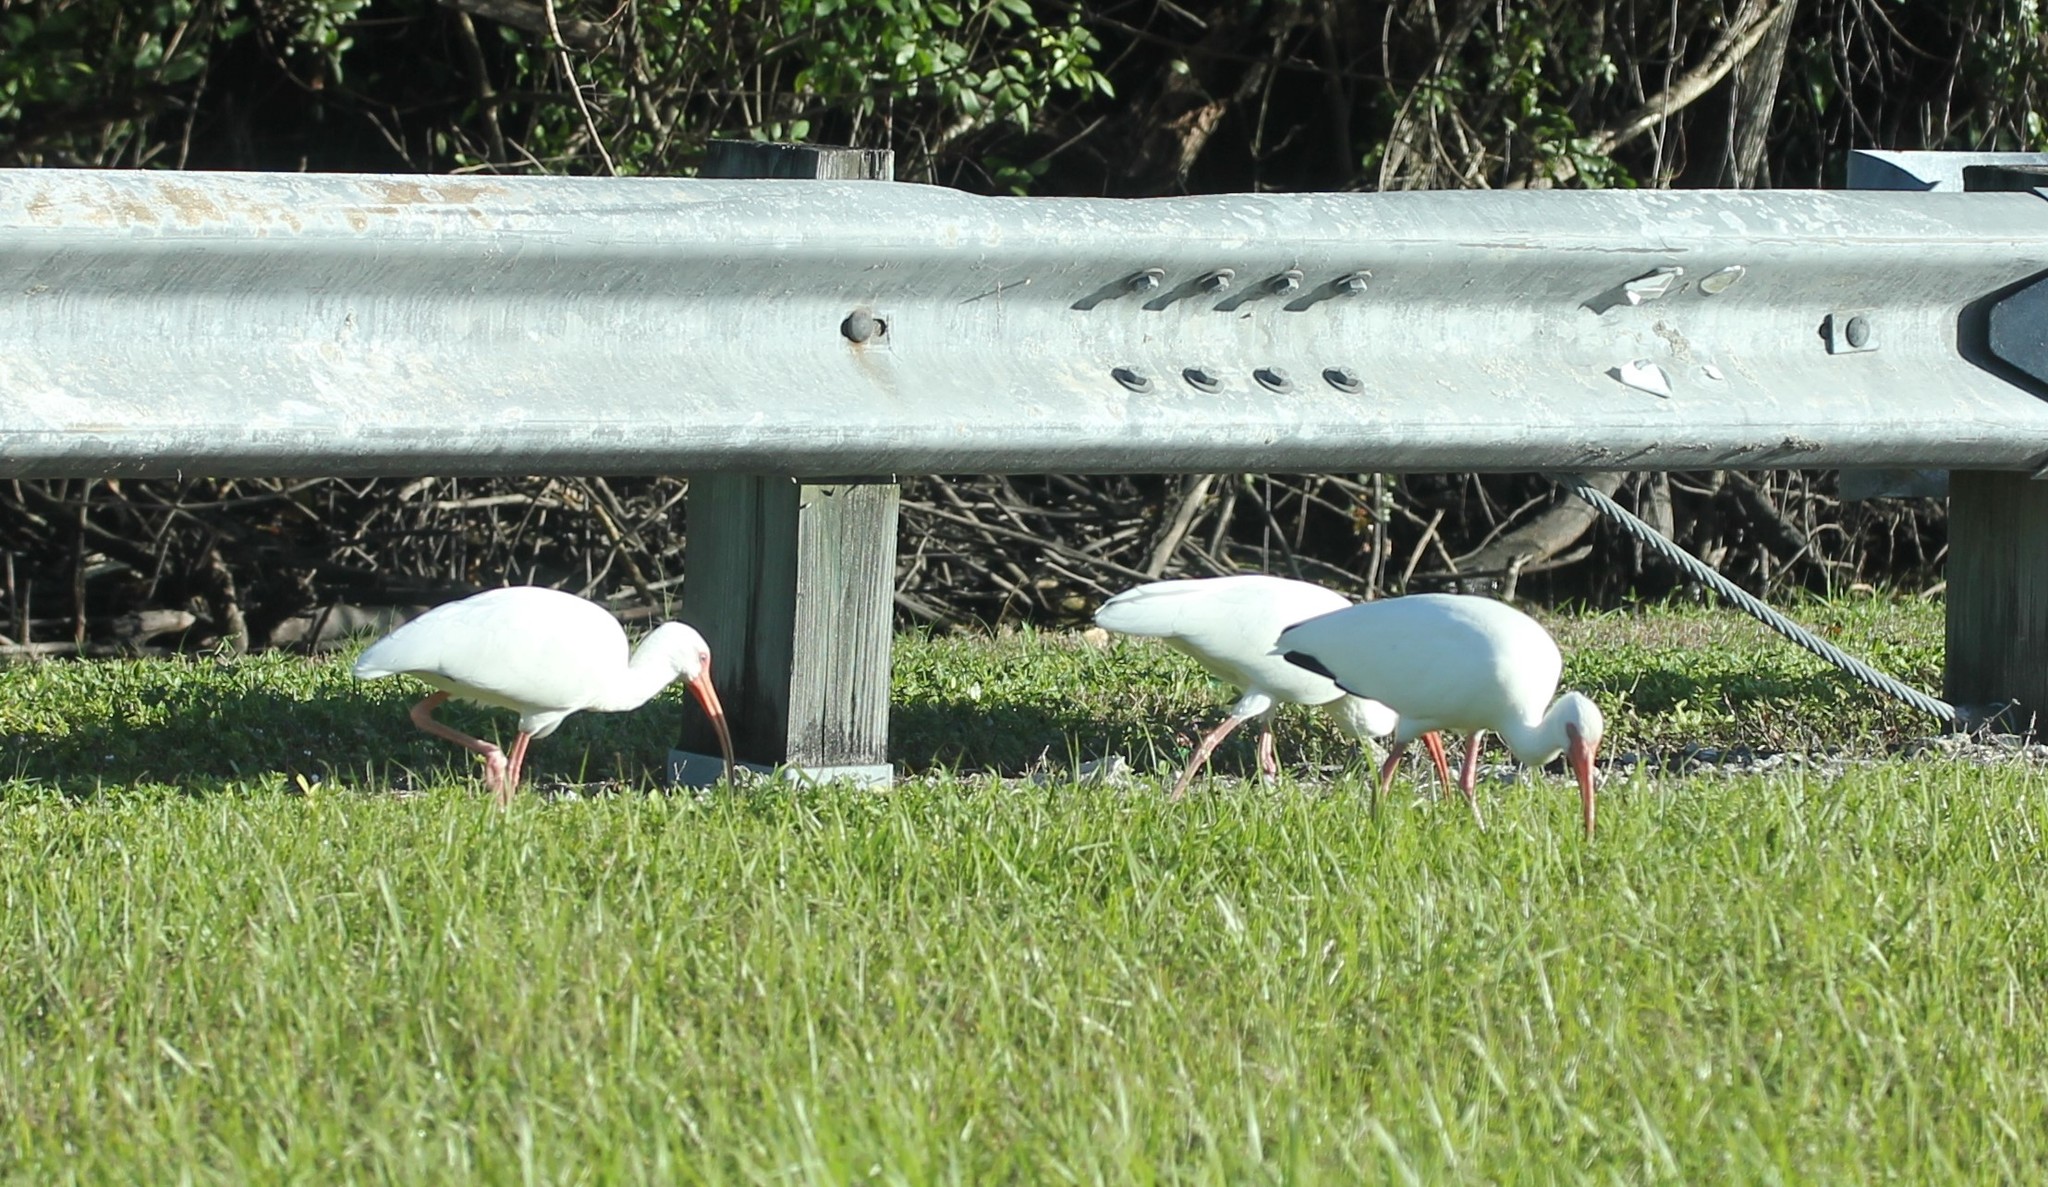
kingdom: Animalia
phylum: Chordata
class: Aves
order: Pelecaniformes
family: Threskiornithidae
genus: Eudocimus
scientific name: Eudocimus albus
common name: White ibis
